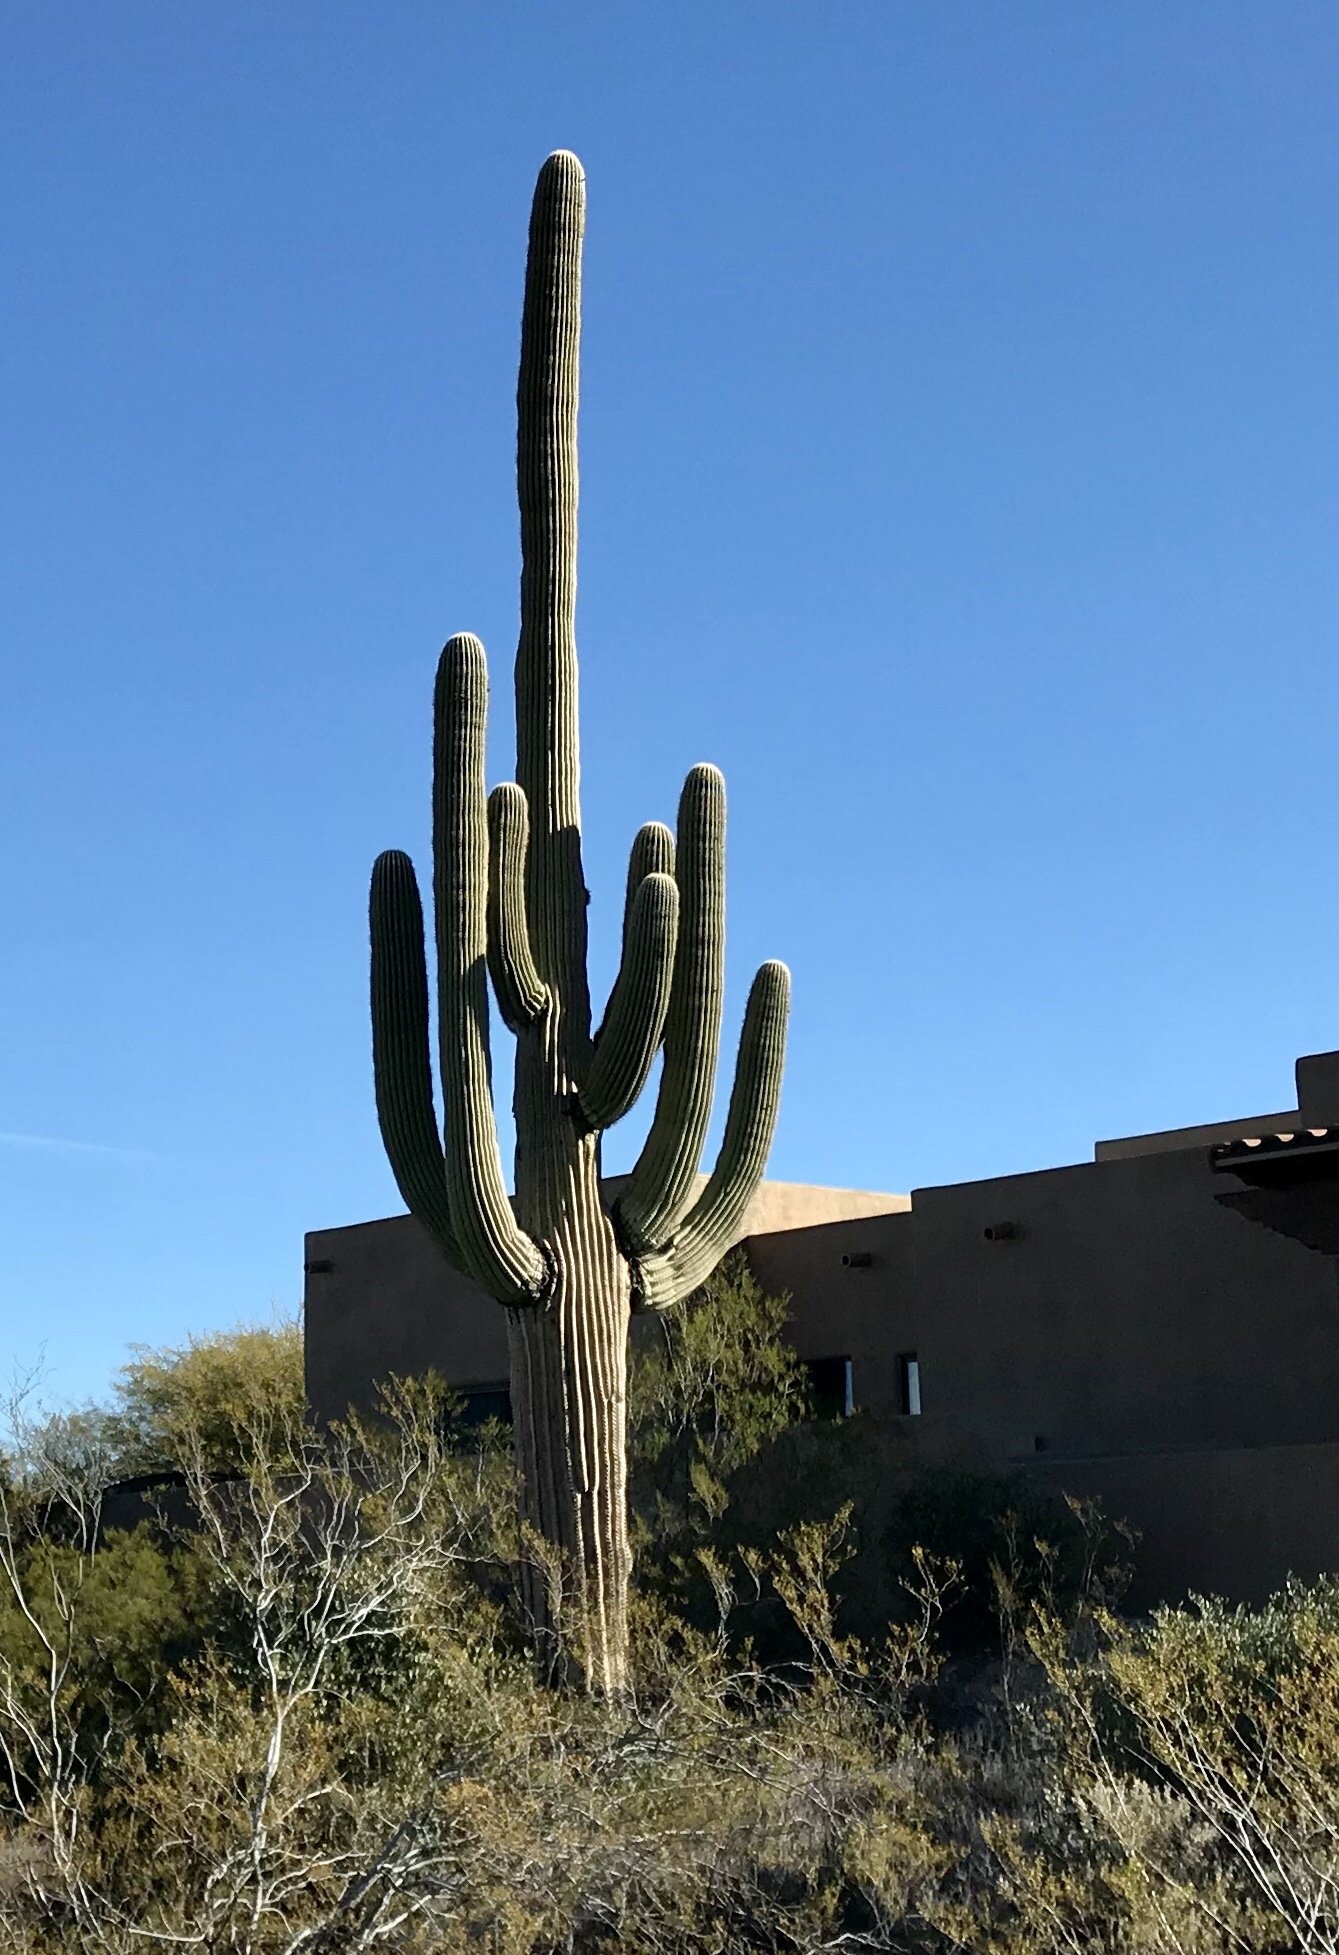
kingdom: Plantae
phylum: Tracheophyta
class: Magnoliopsida
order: Caryophyllales
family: Cactaceae
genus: Carnegiea
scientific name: Carnegiea gigantea
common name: Saguaro
